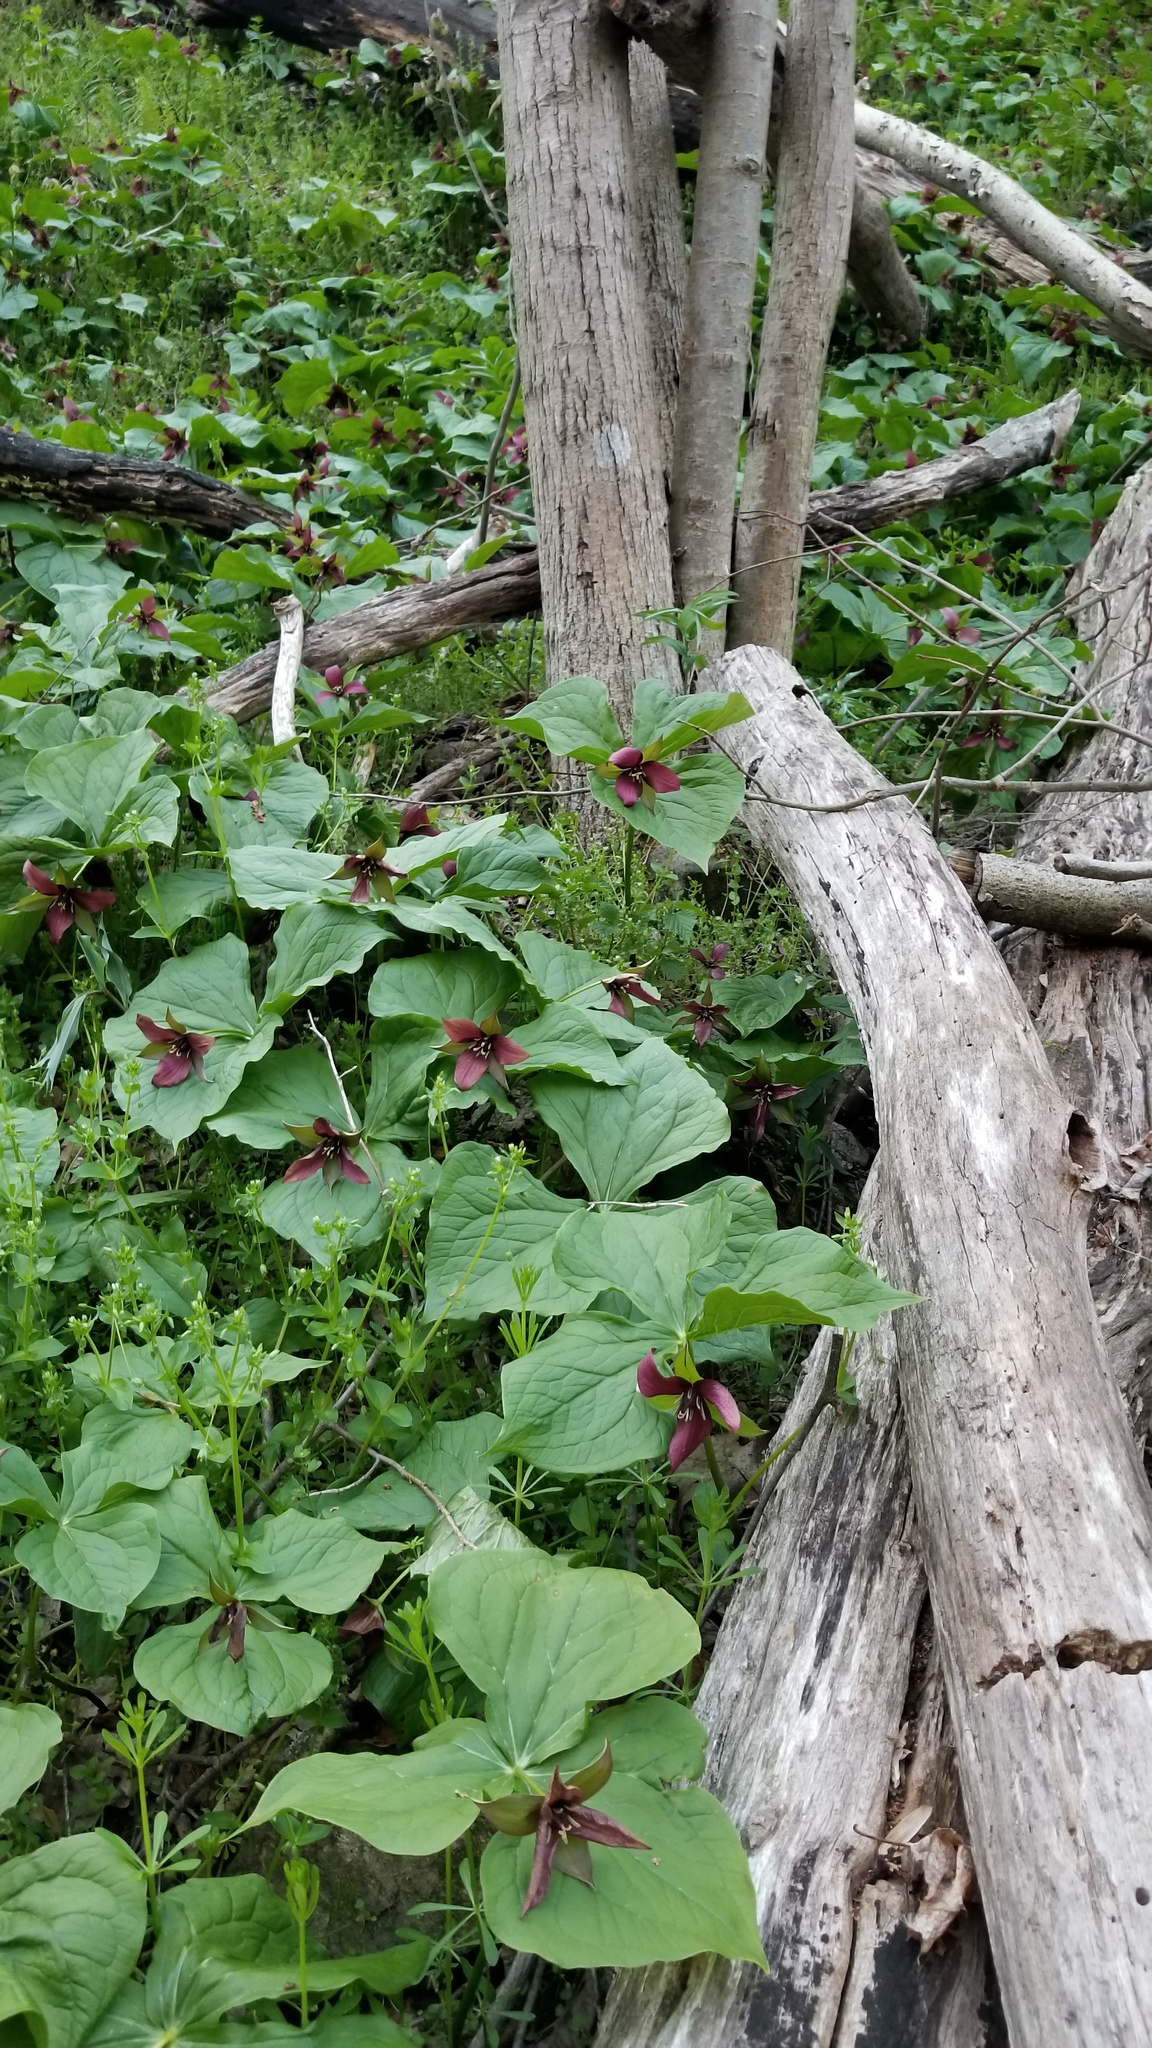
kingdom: Plantae
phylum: Tracheophyta
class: Liliopsida
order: Liliales
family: Melanthiaceae
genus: Trillium
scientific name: Trillium erectum
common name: Purple trillium
